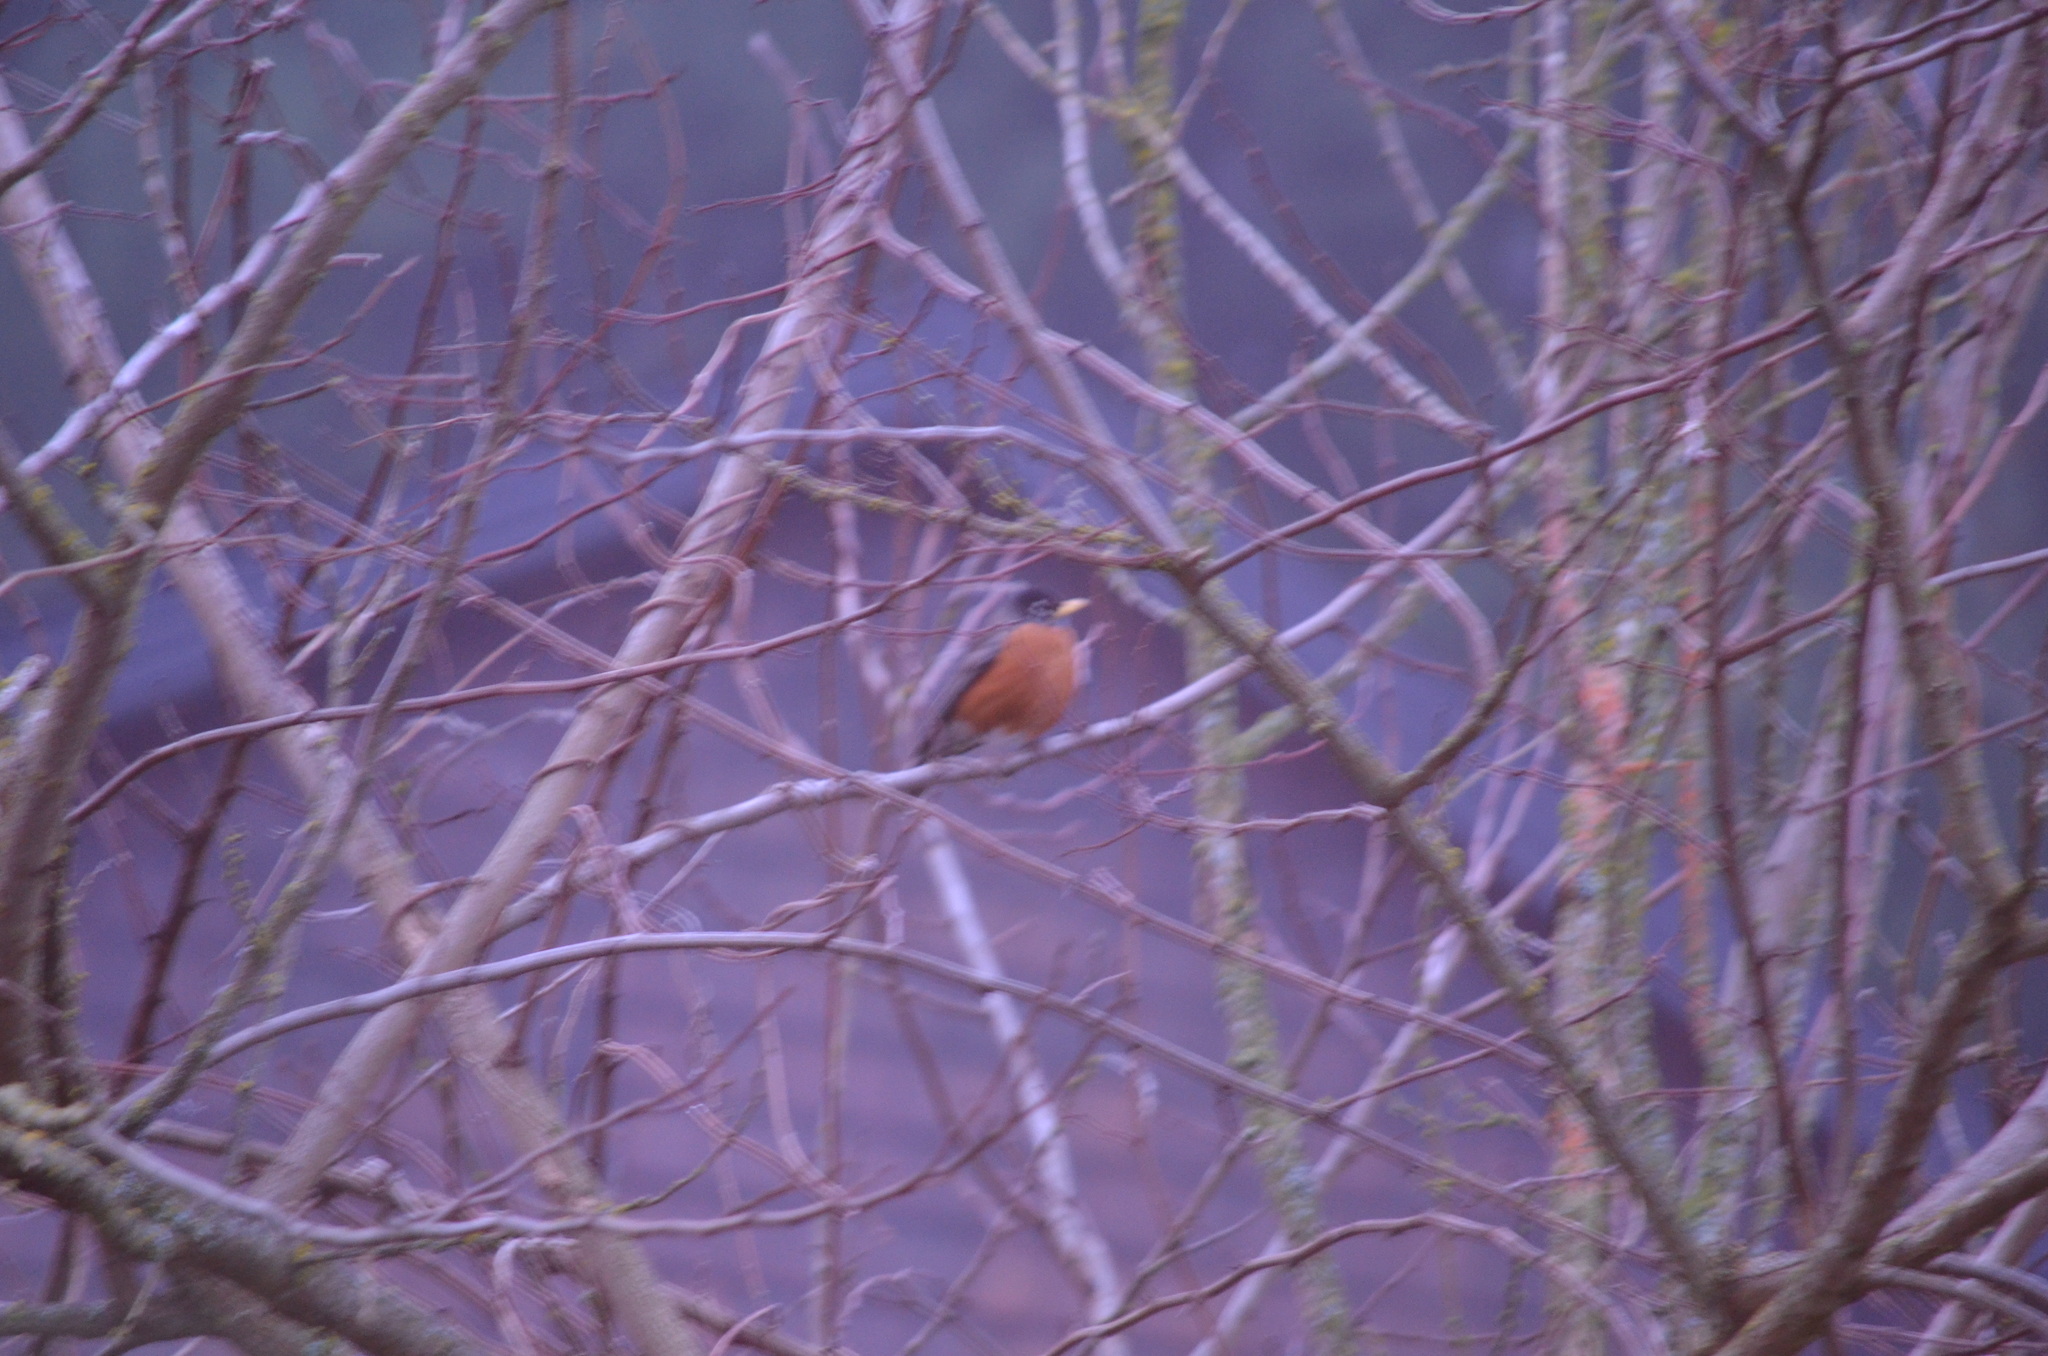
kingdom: Animalia
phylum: Chordata
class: Aves
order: Passeriformes
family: Turdidae
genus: Turdus
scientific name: Turdus migratorius
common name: American robin
